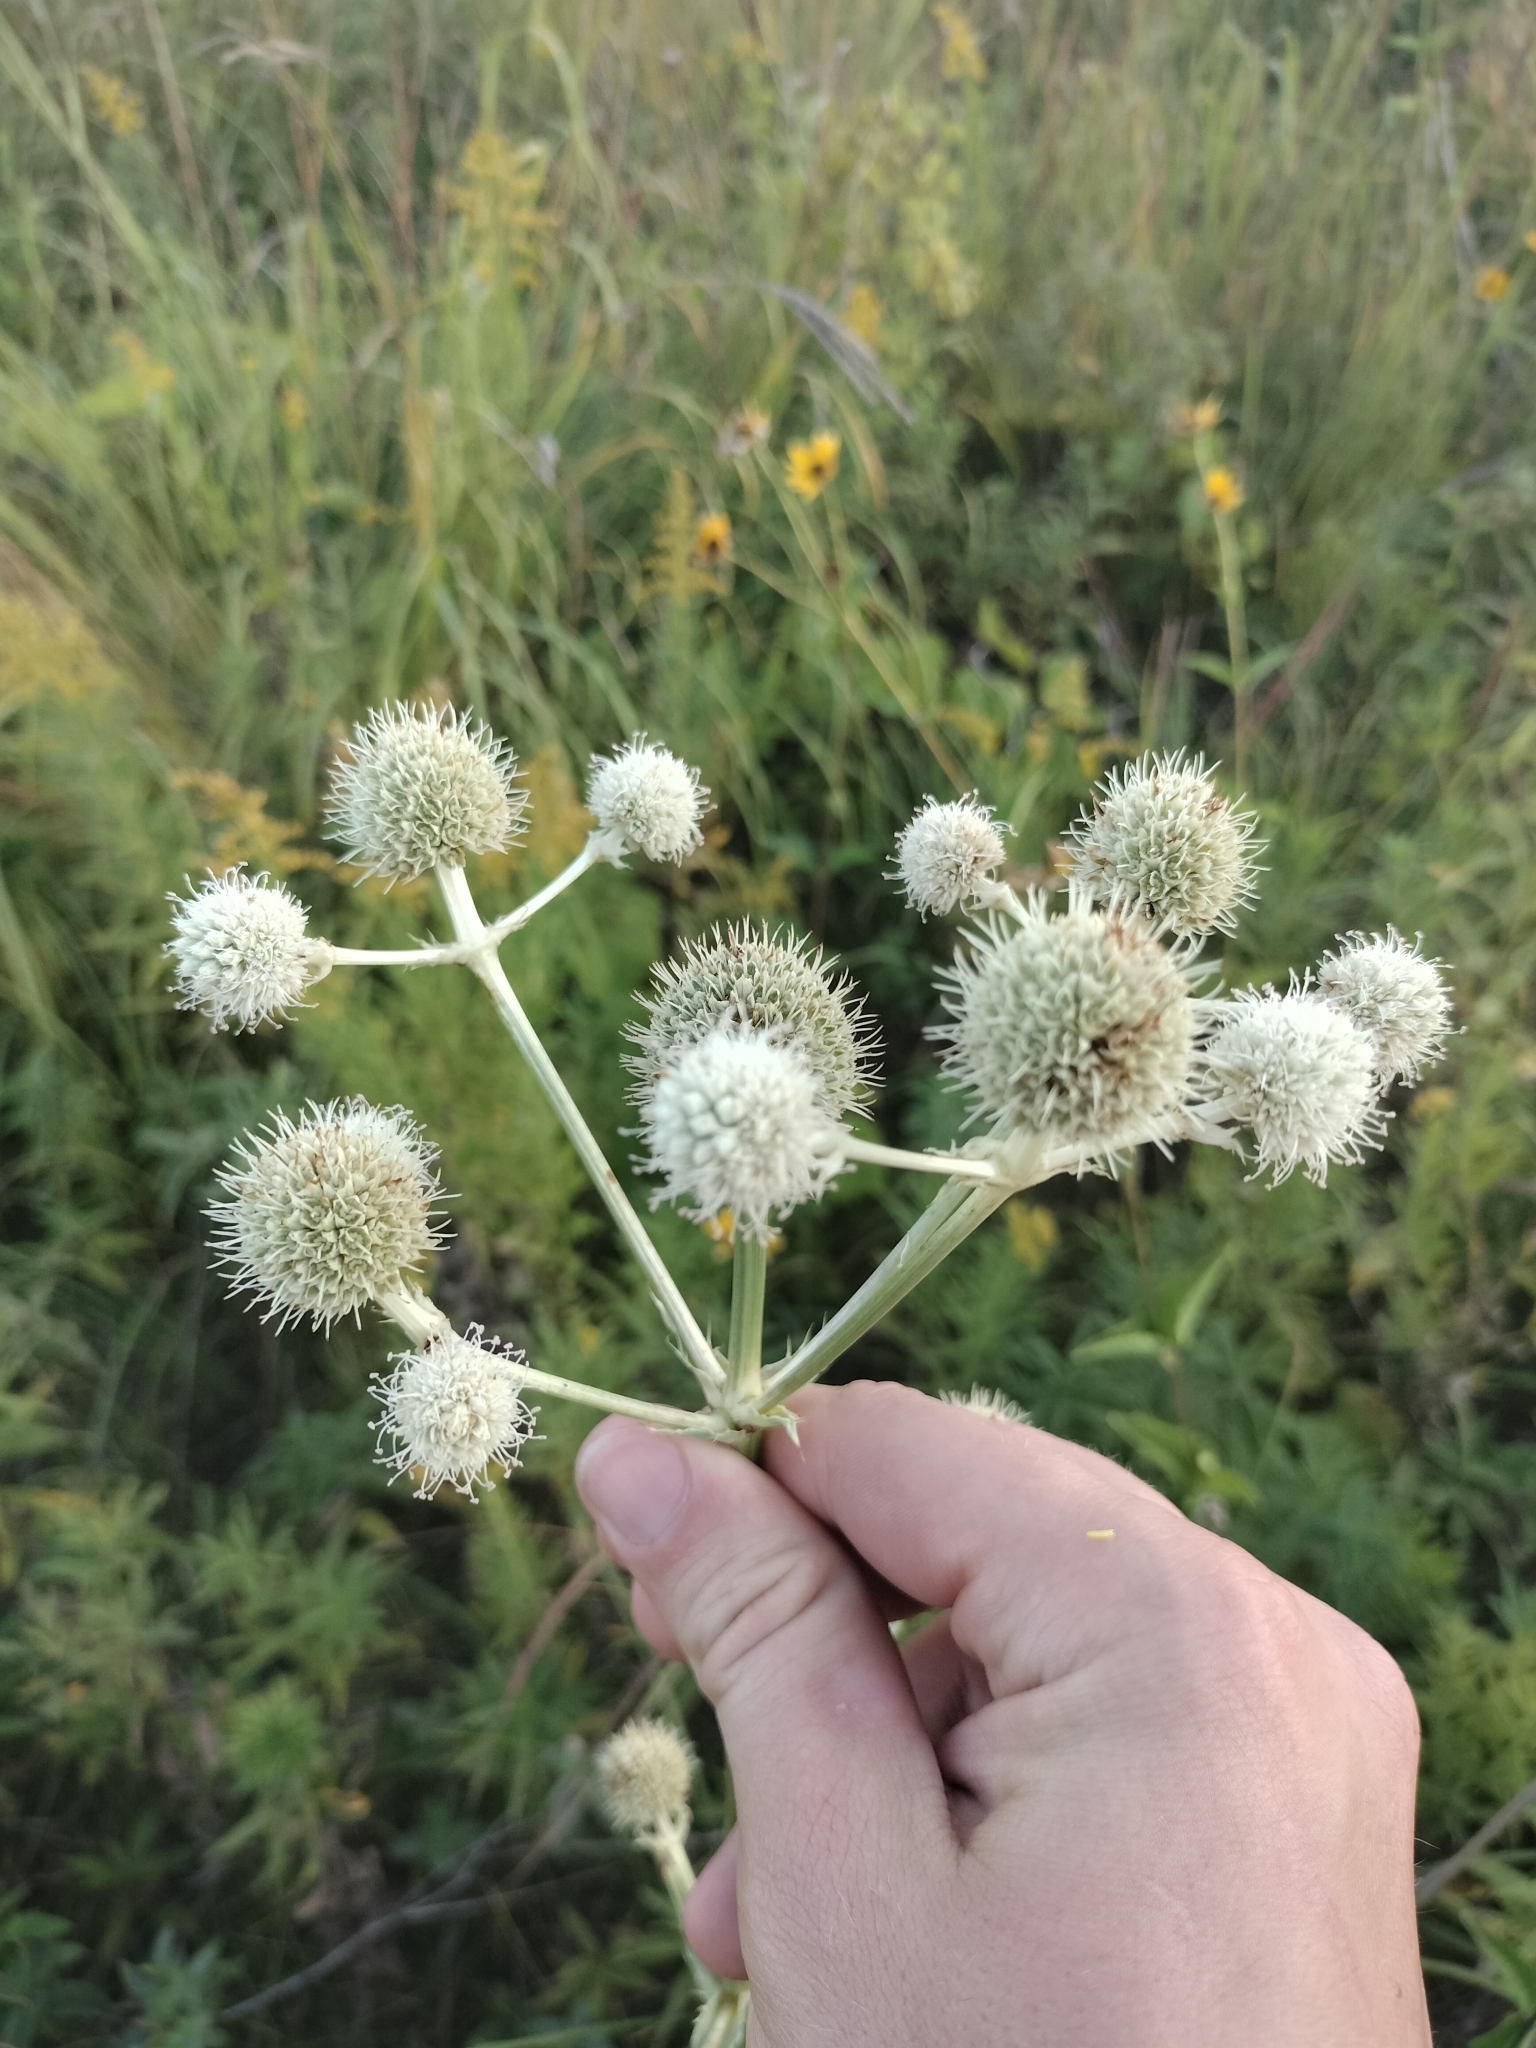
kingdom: Plantae
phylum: Tracheophyta
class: Magnoliopsida
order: Apiales
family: Apiaceae
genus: Eryngium
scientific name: Eryngium yuccifolium
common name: Button eryngo
